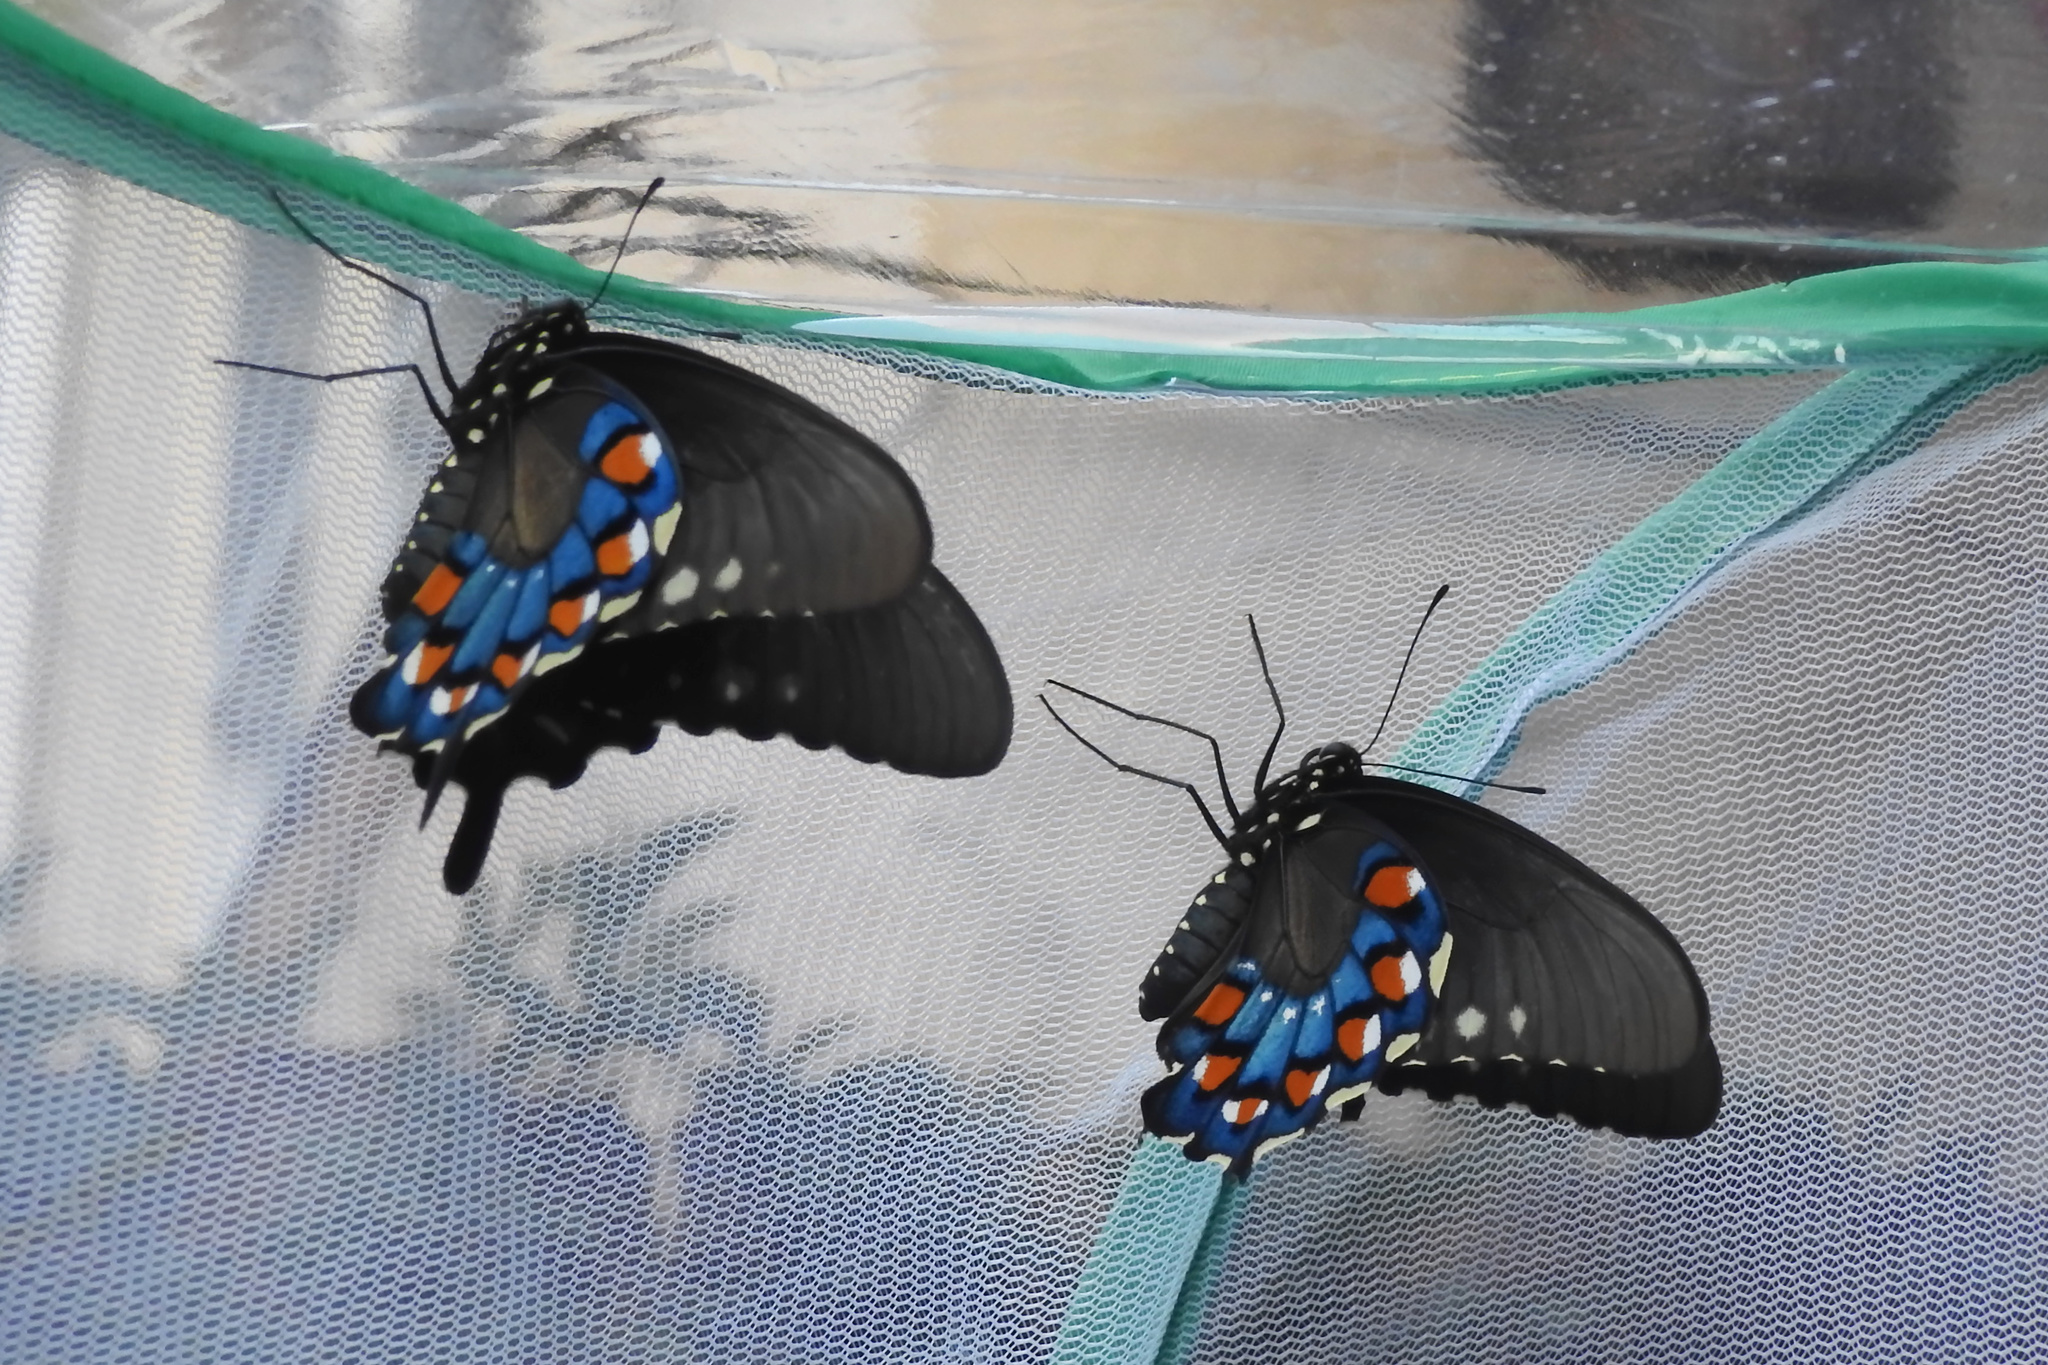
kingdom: Animalia
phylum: Arthropoda
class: Insecta
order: Lepidoptera
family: Papilionidae
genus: Battus
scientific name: Battus philenor
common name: Pipevine swallowtail
